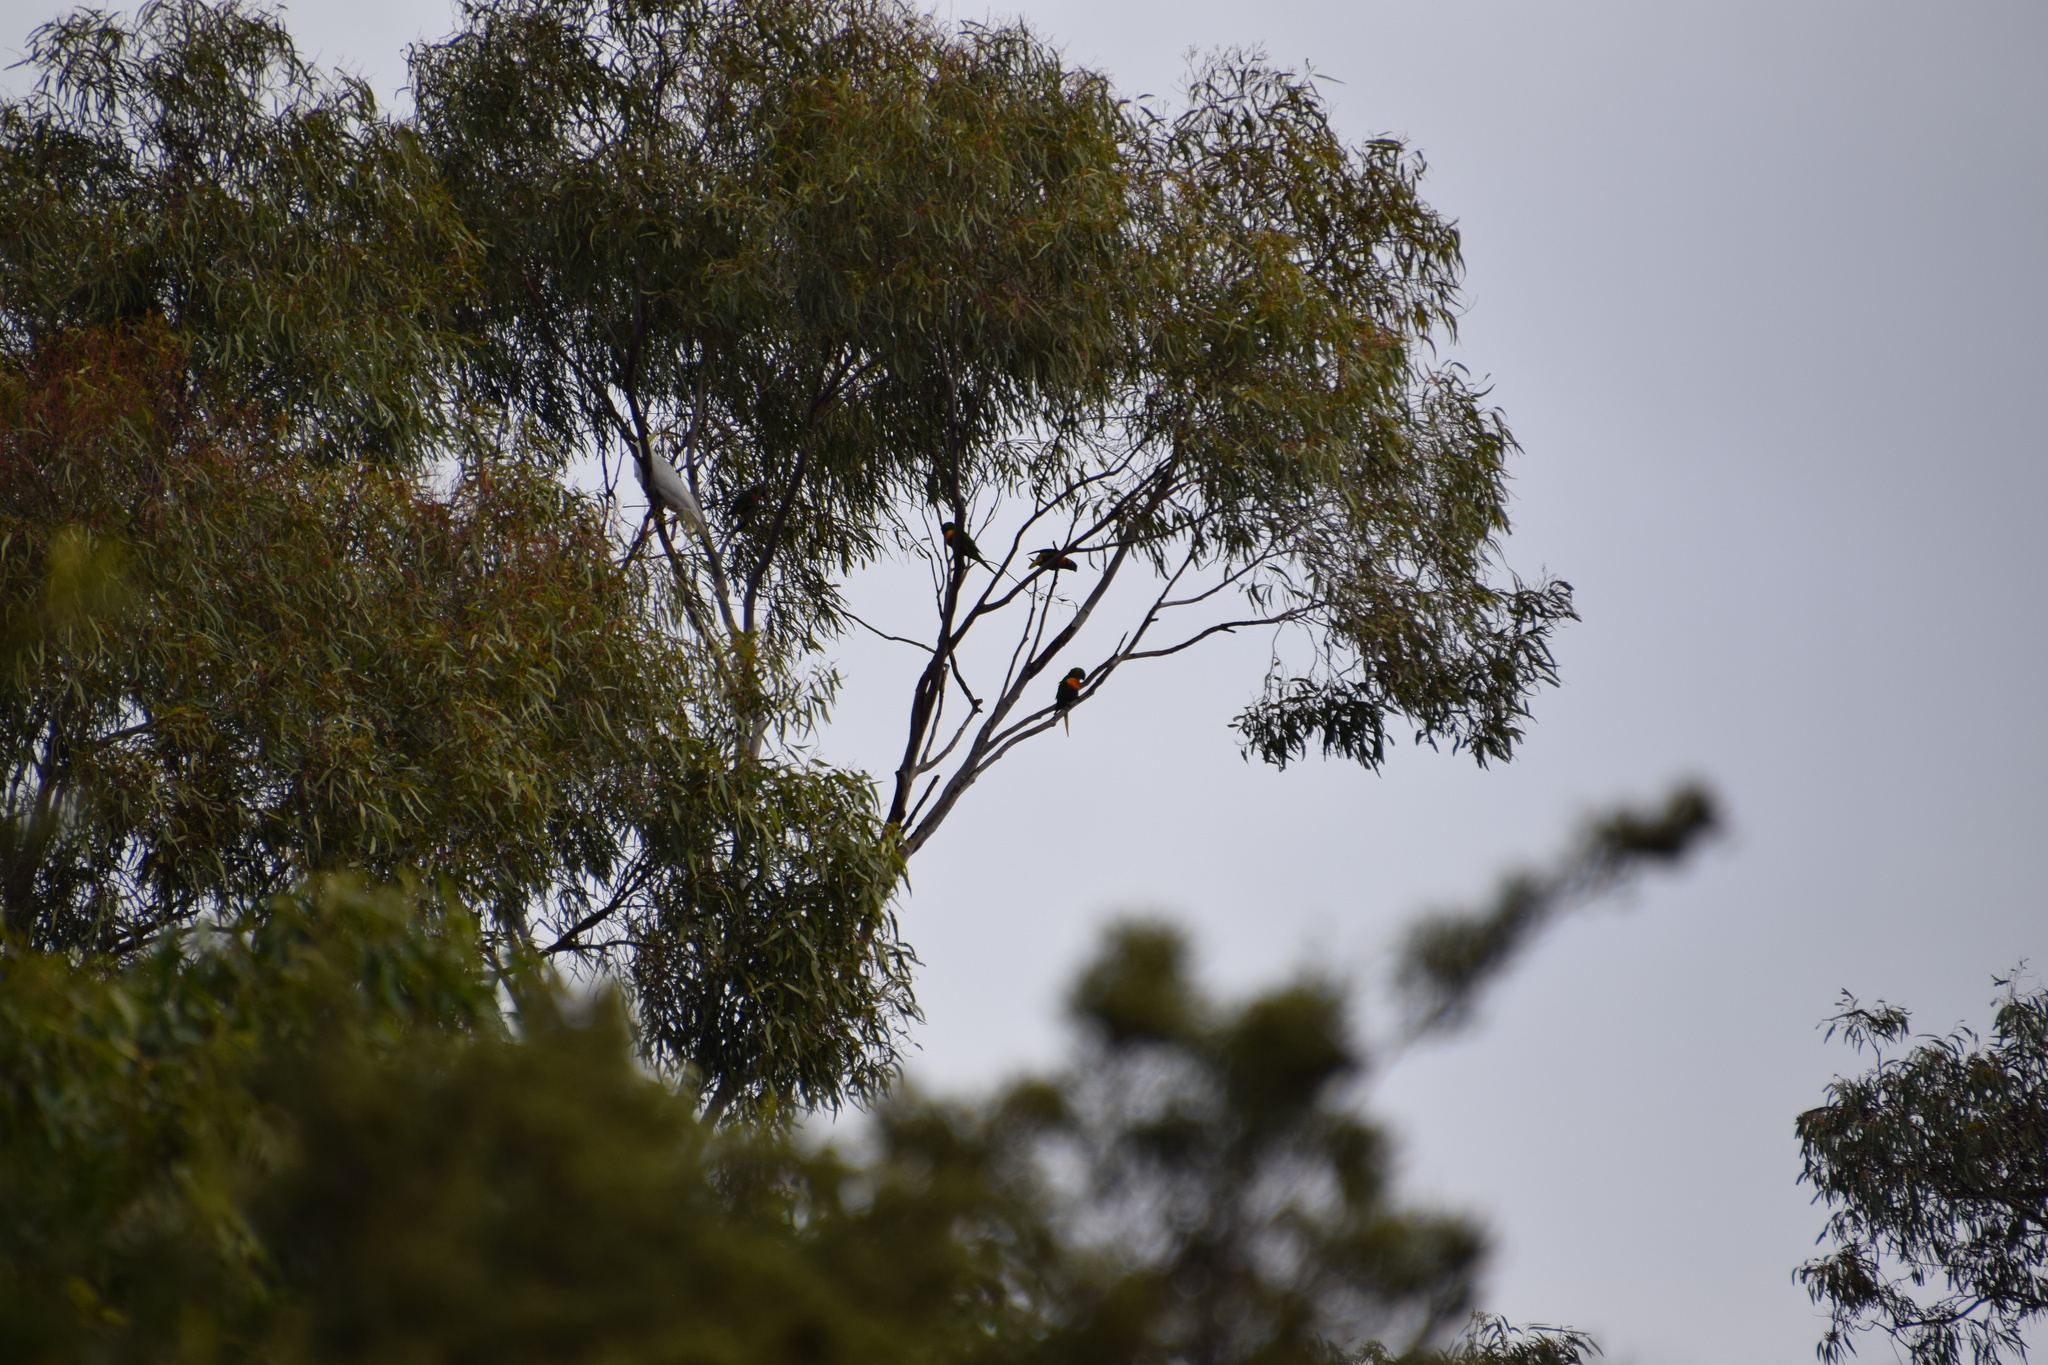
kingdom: Animalia
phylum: Chordata
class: Aves
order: Psittaciformes
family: Psittacidae
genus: Trichoglossus
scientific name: Trichoglossus haematodus
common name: Coconut lorikeet
